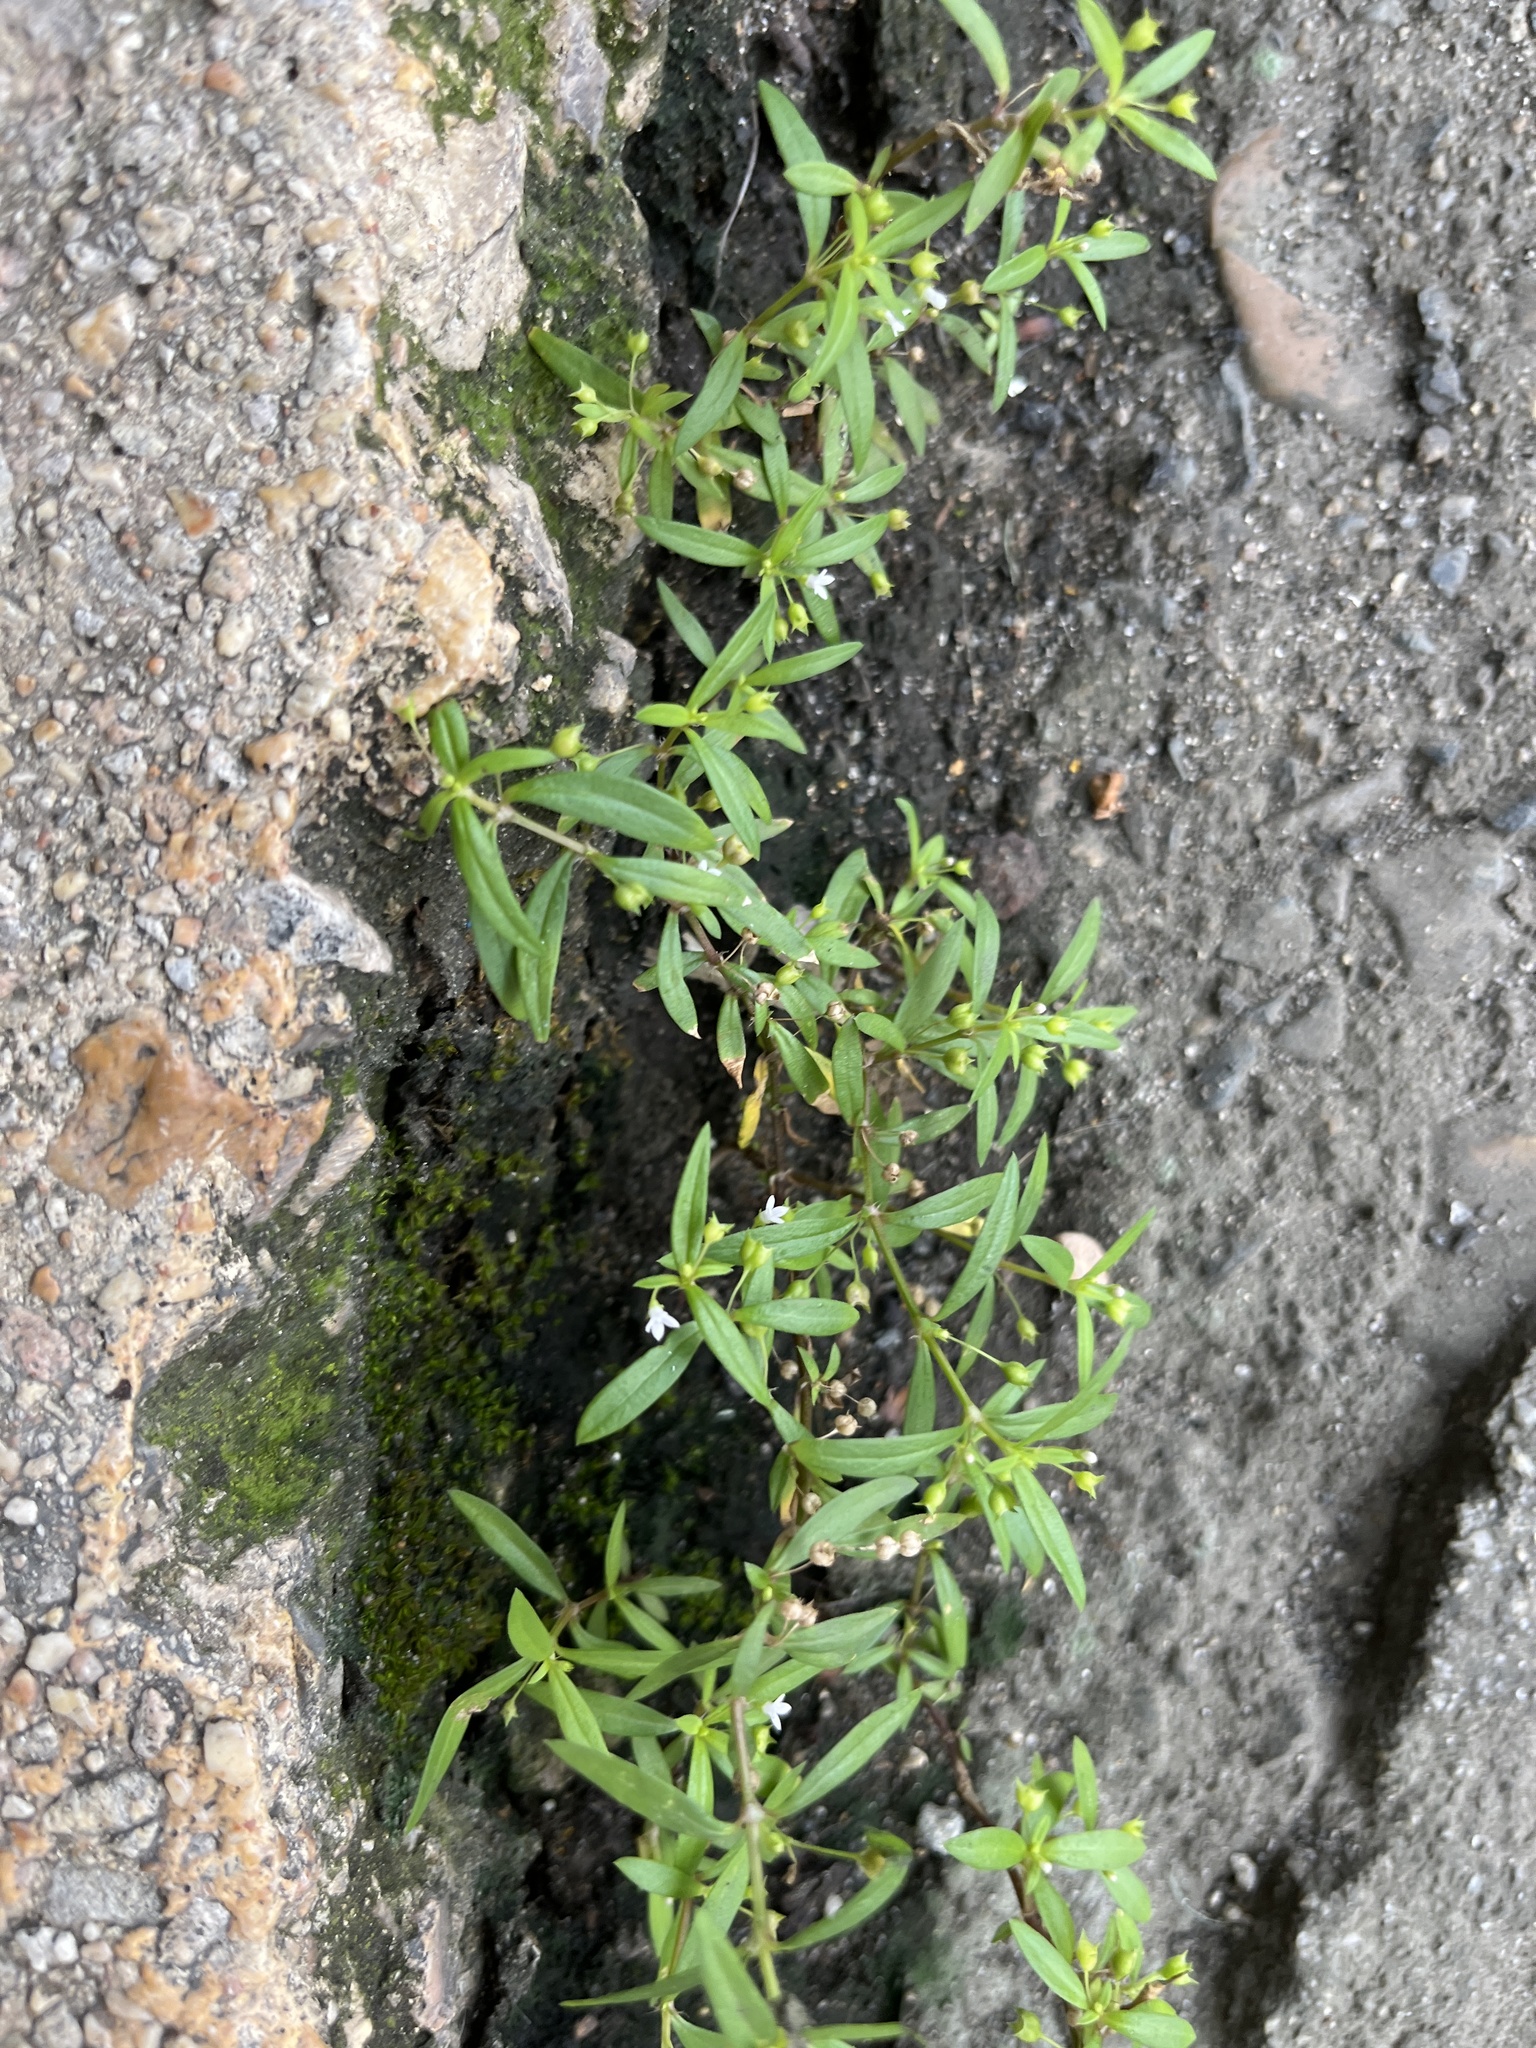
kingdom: Plantae
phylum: Tracheophyta
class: Magnoliopsida
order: Gentianales
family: Rubiaceae
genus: Oldenlandia
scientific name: Oldenlandia corymbosa
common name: Flat-top mille graines
